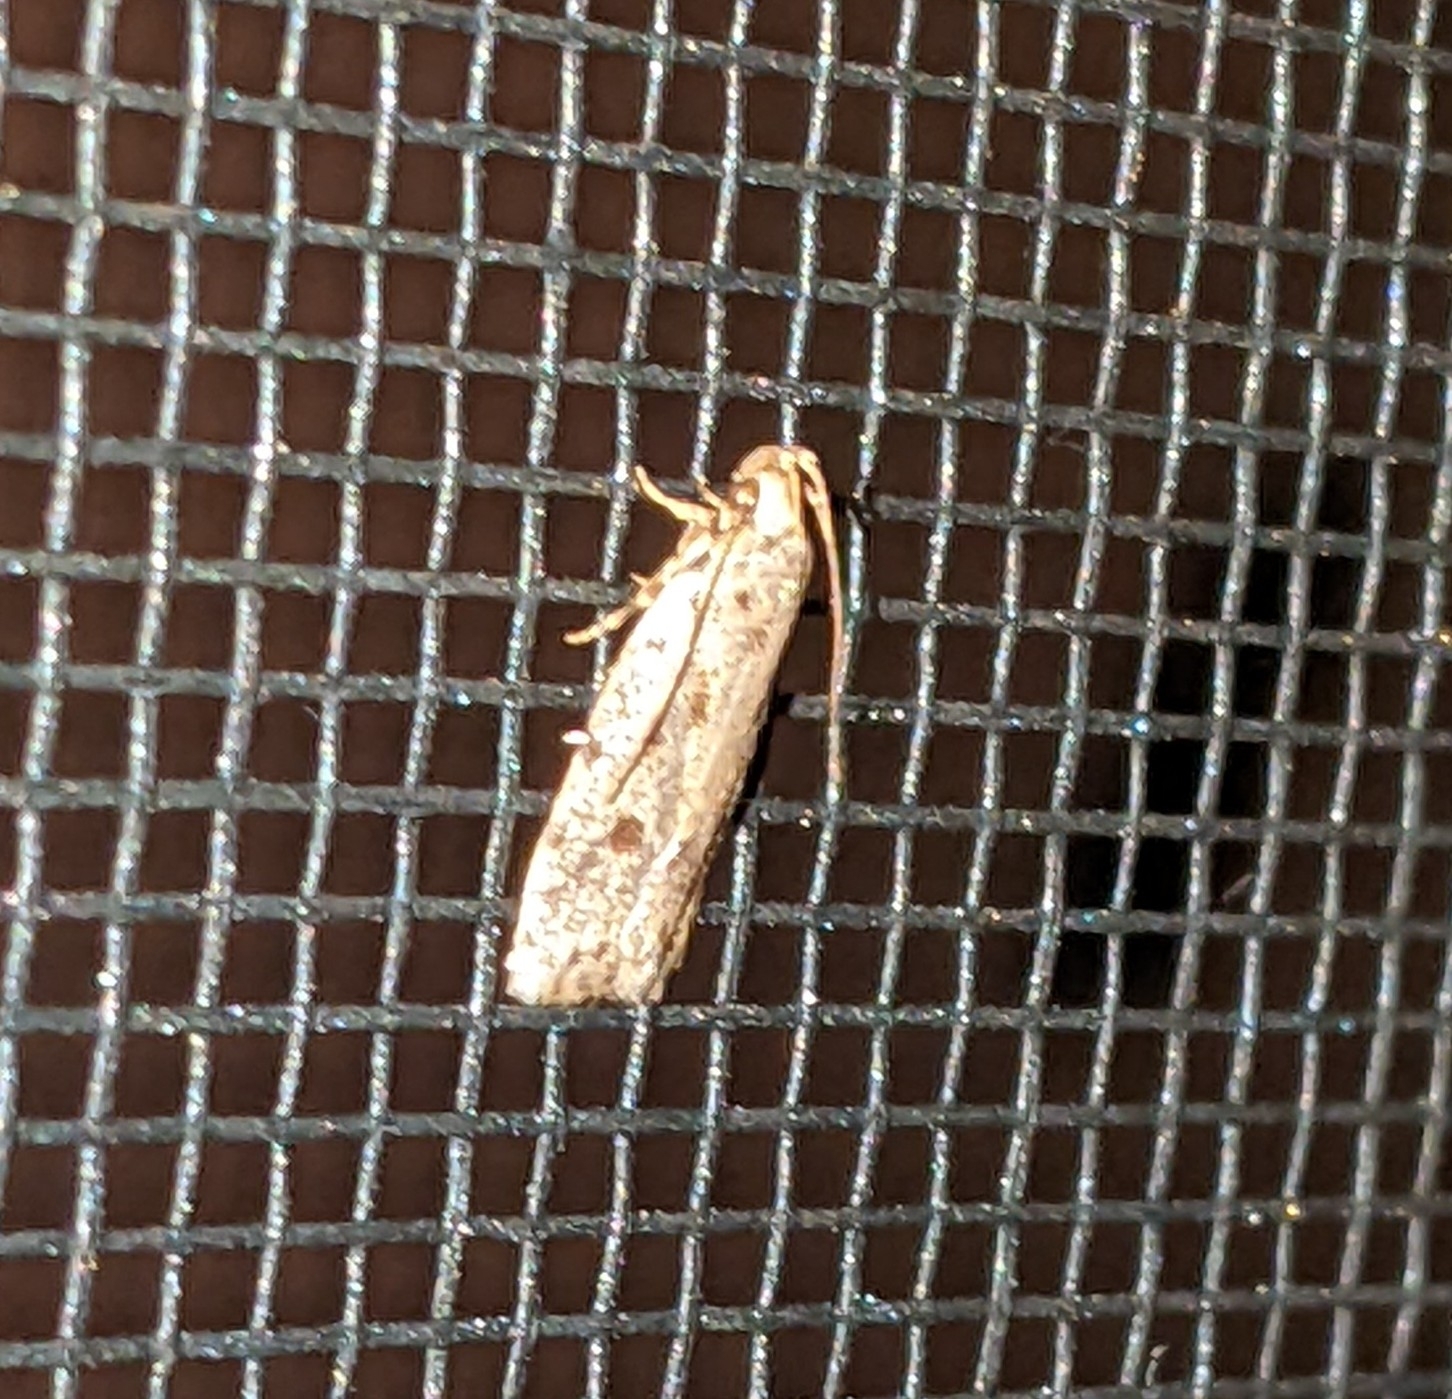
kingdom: Animalia
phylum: Arthropoda
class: Insecta
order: Lepidoptera
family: Autostichidae
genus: Stoeberhinus
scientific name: Stoeberhinus testaceus
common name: Moth
